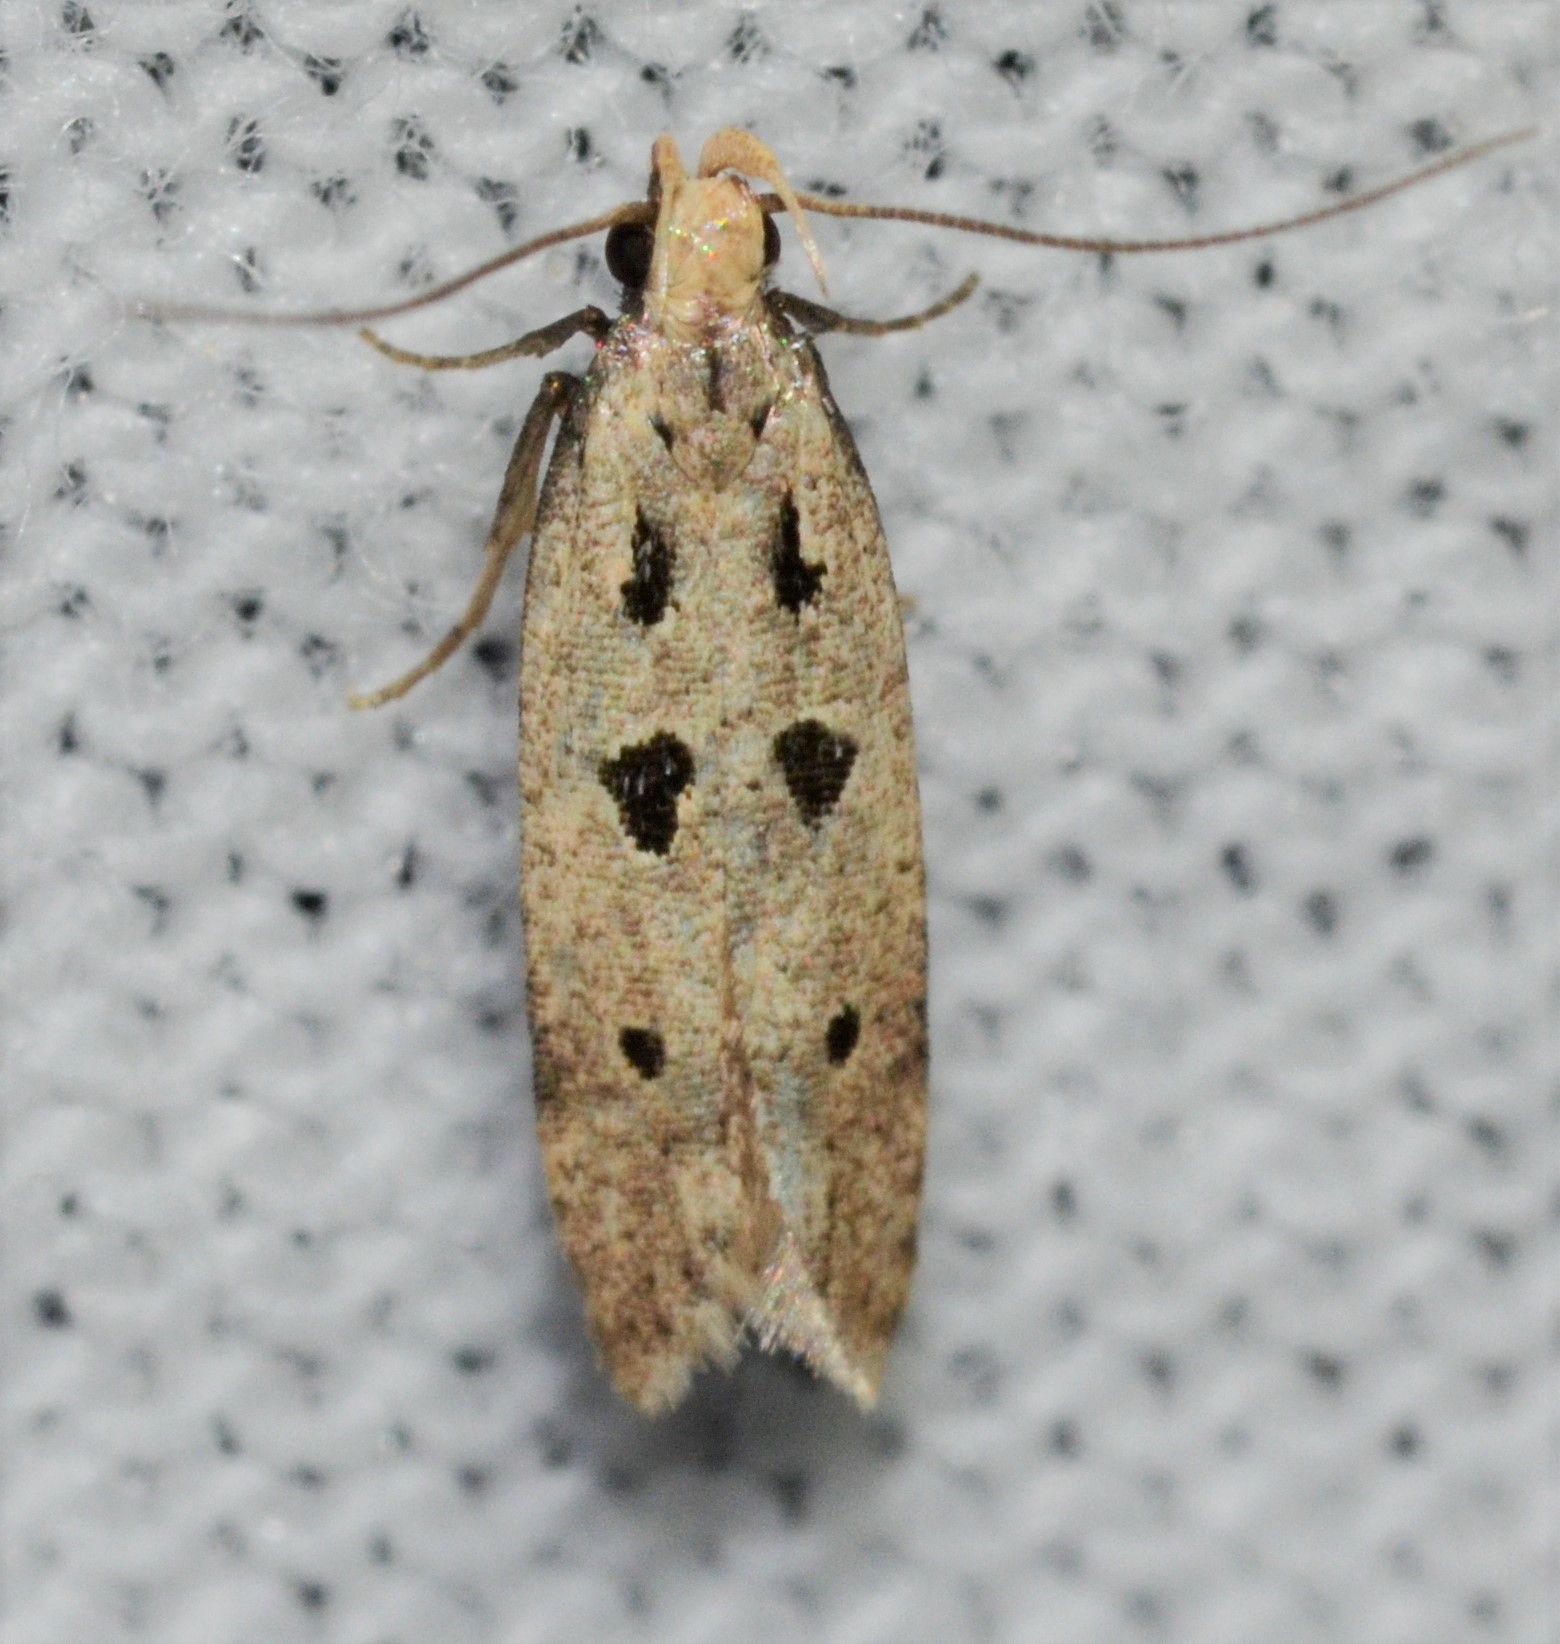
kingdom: Animalia
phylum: Arthropoda
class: Insecta
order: Lepidoptera
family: Gelechiidae
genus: Deltophora
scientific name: Deltophora sella
